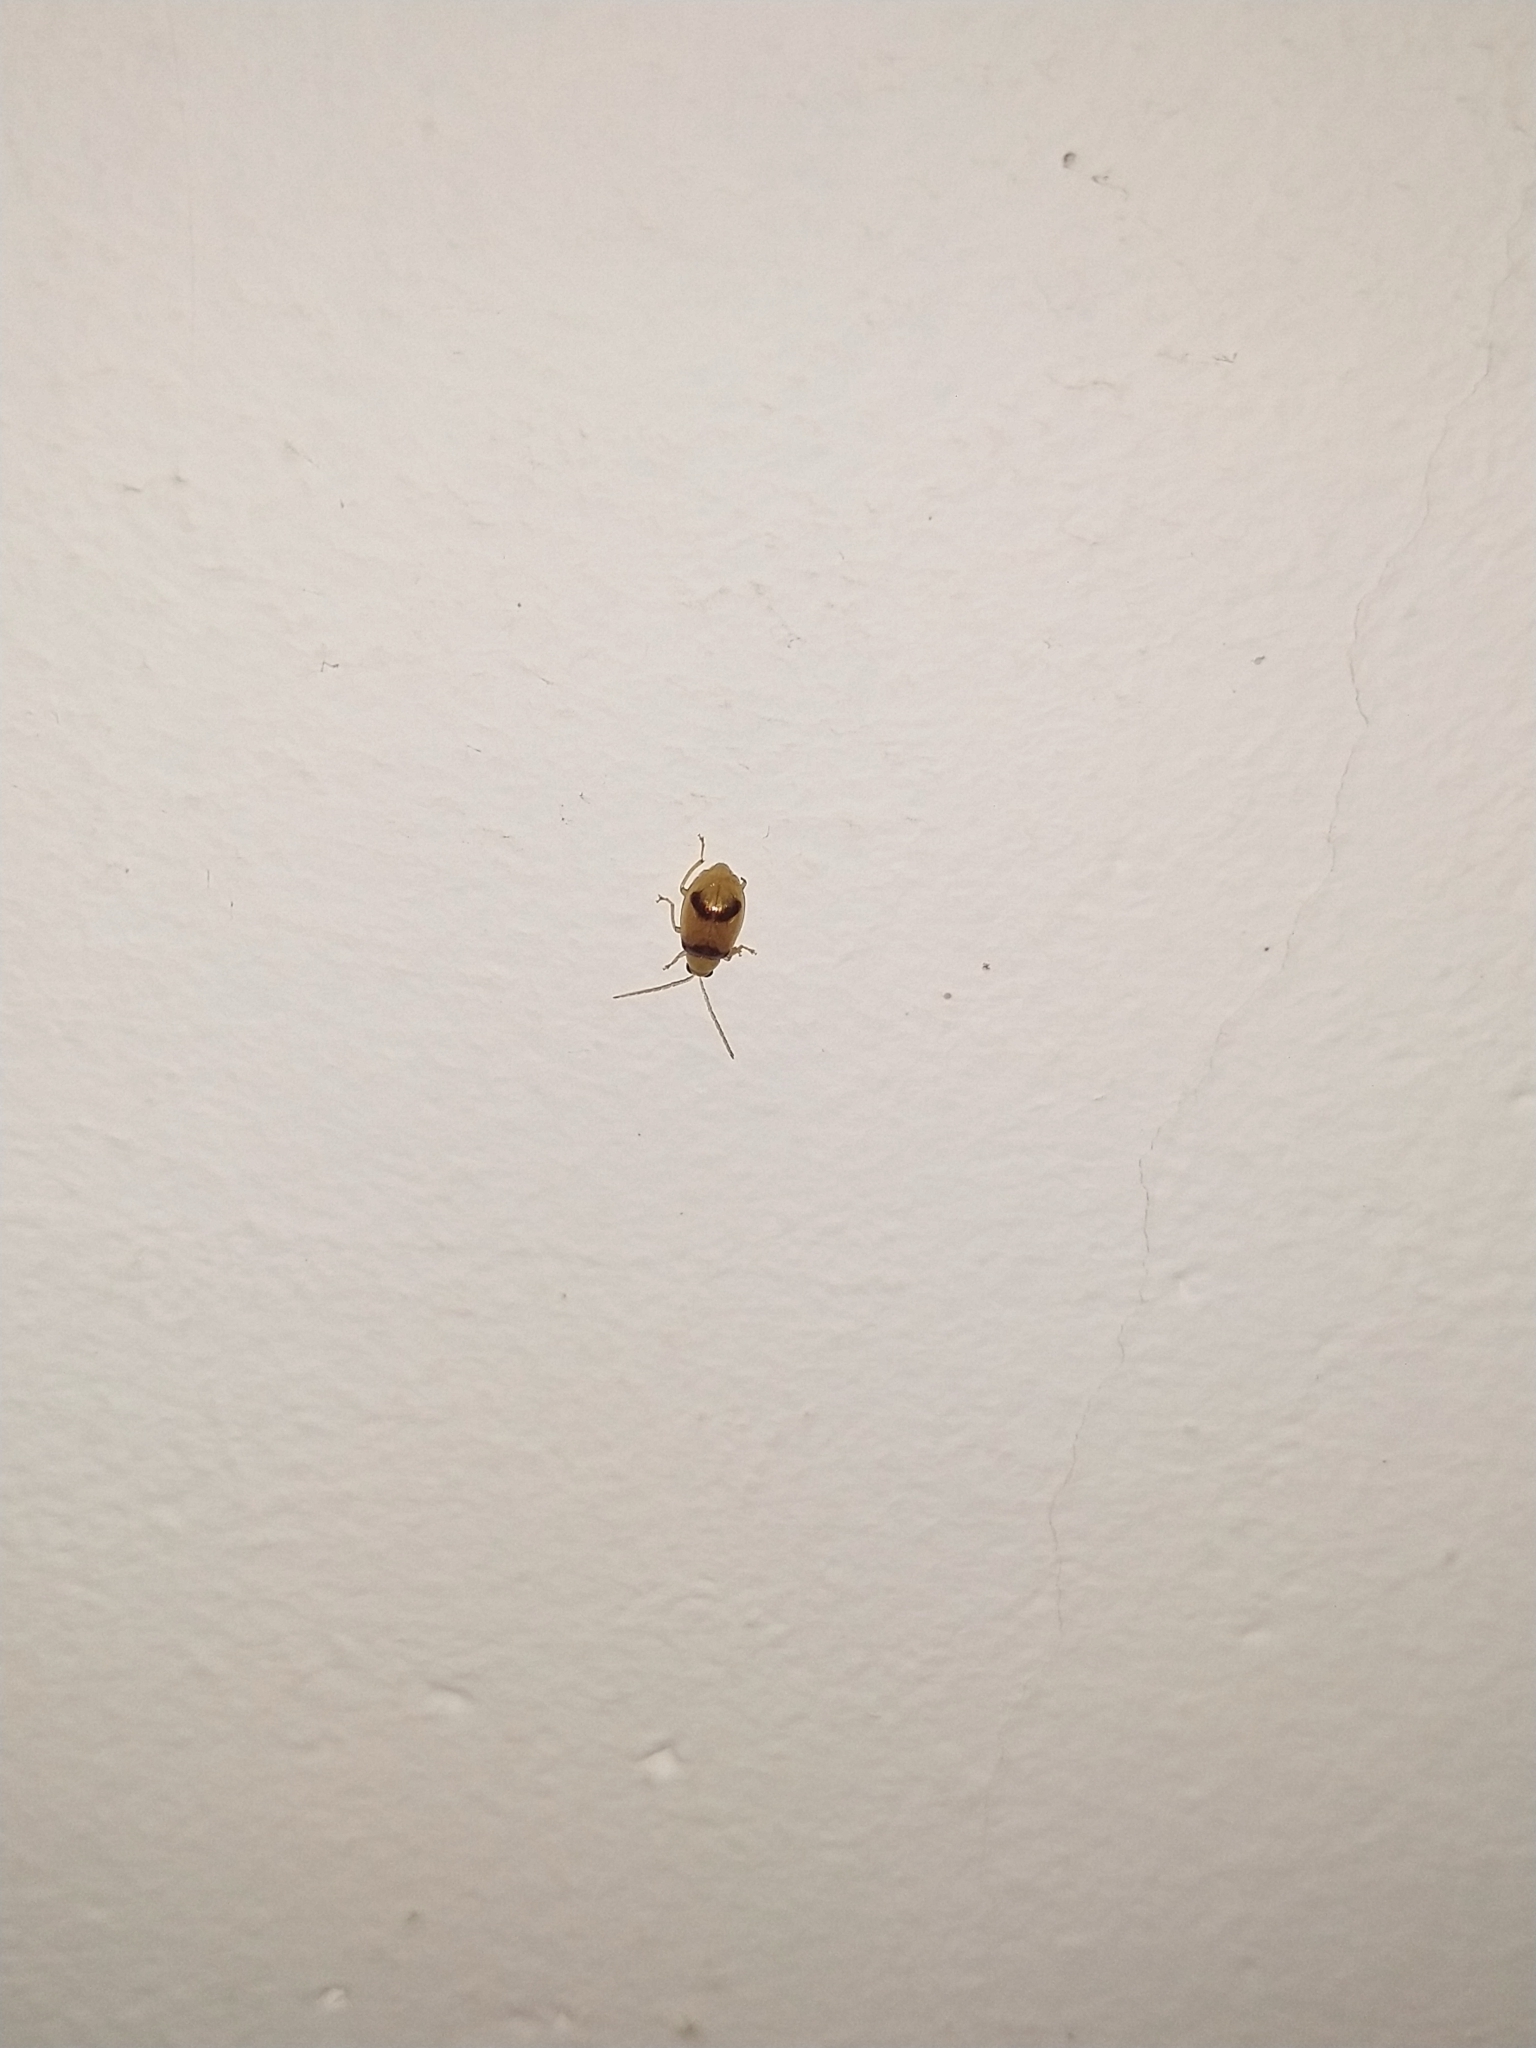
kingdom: Animalia
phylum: Arthropoda
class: Insecta
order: Coleoptera
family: Chrysomelidae
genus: Monolepta
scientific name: Monolepta
